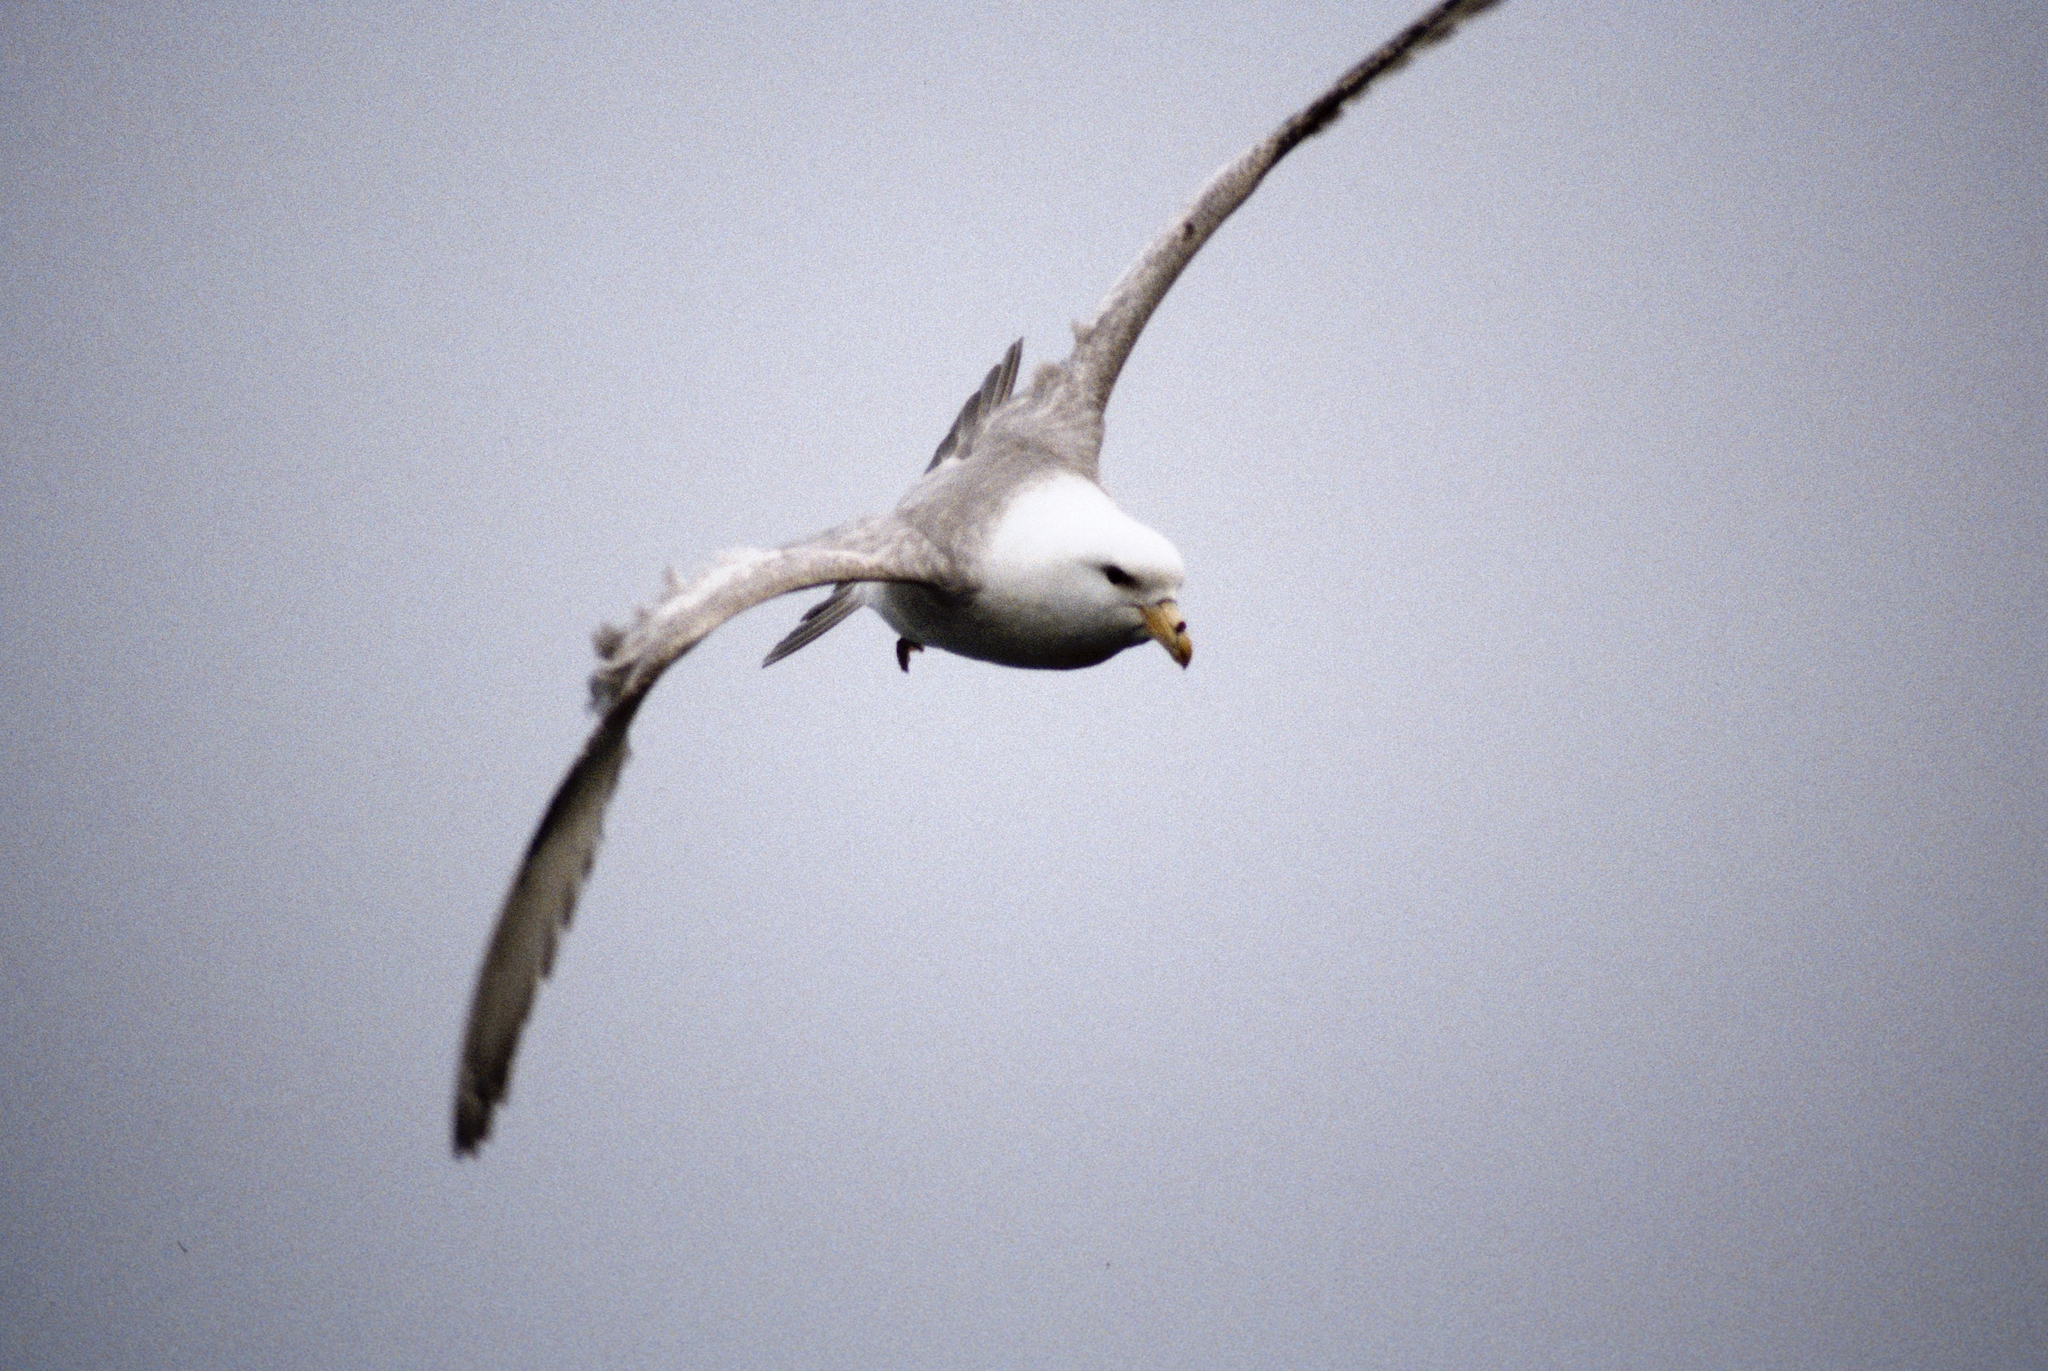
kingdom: Animalia
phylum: Chordata
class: Aves
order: Procellariiformes
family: Procellariidae
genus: Fulmarus
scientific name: Fulmarus glacialis
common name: Northern fulmar
